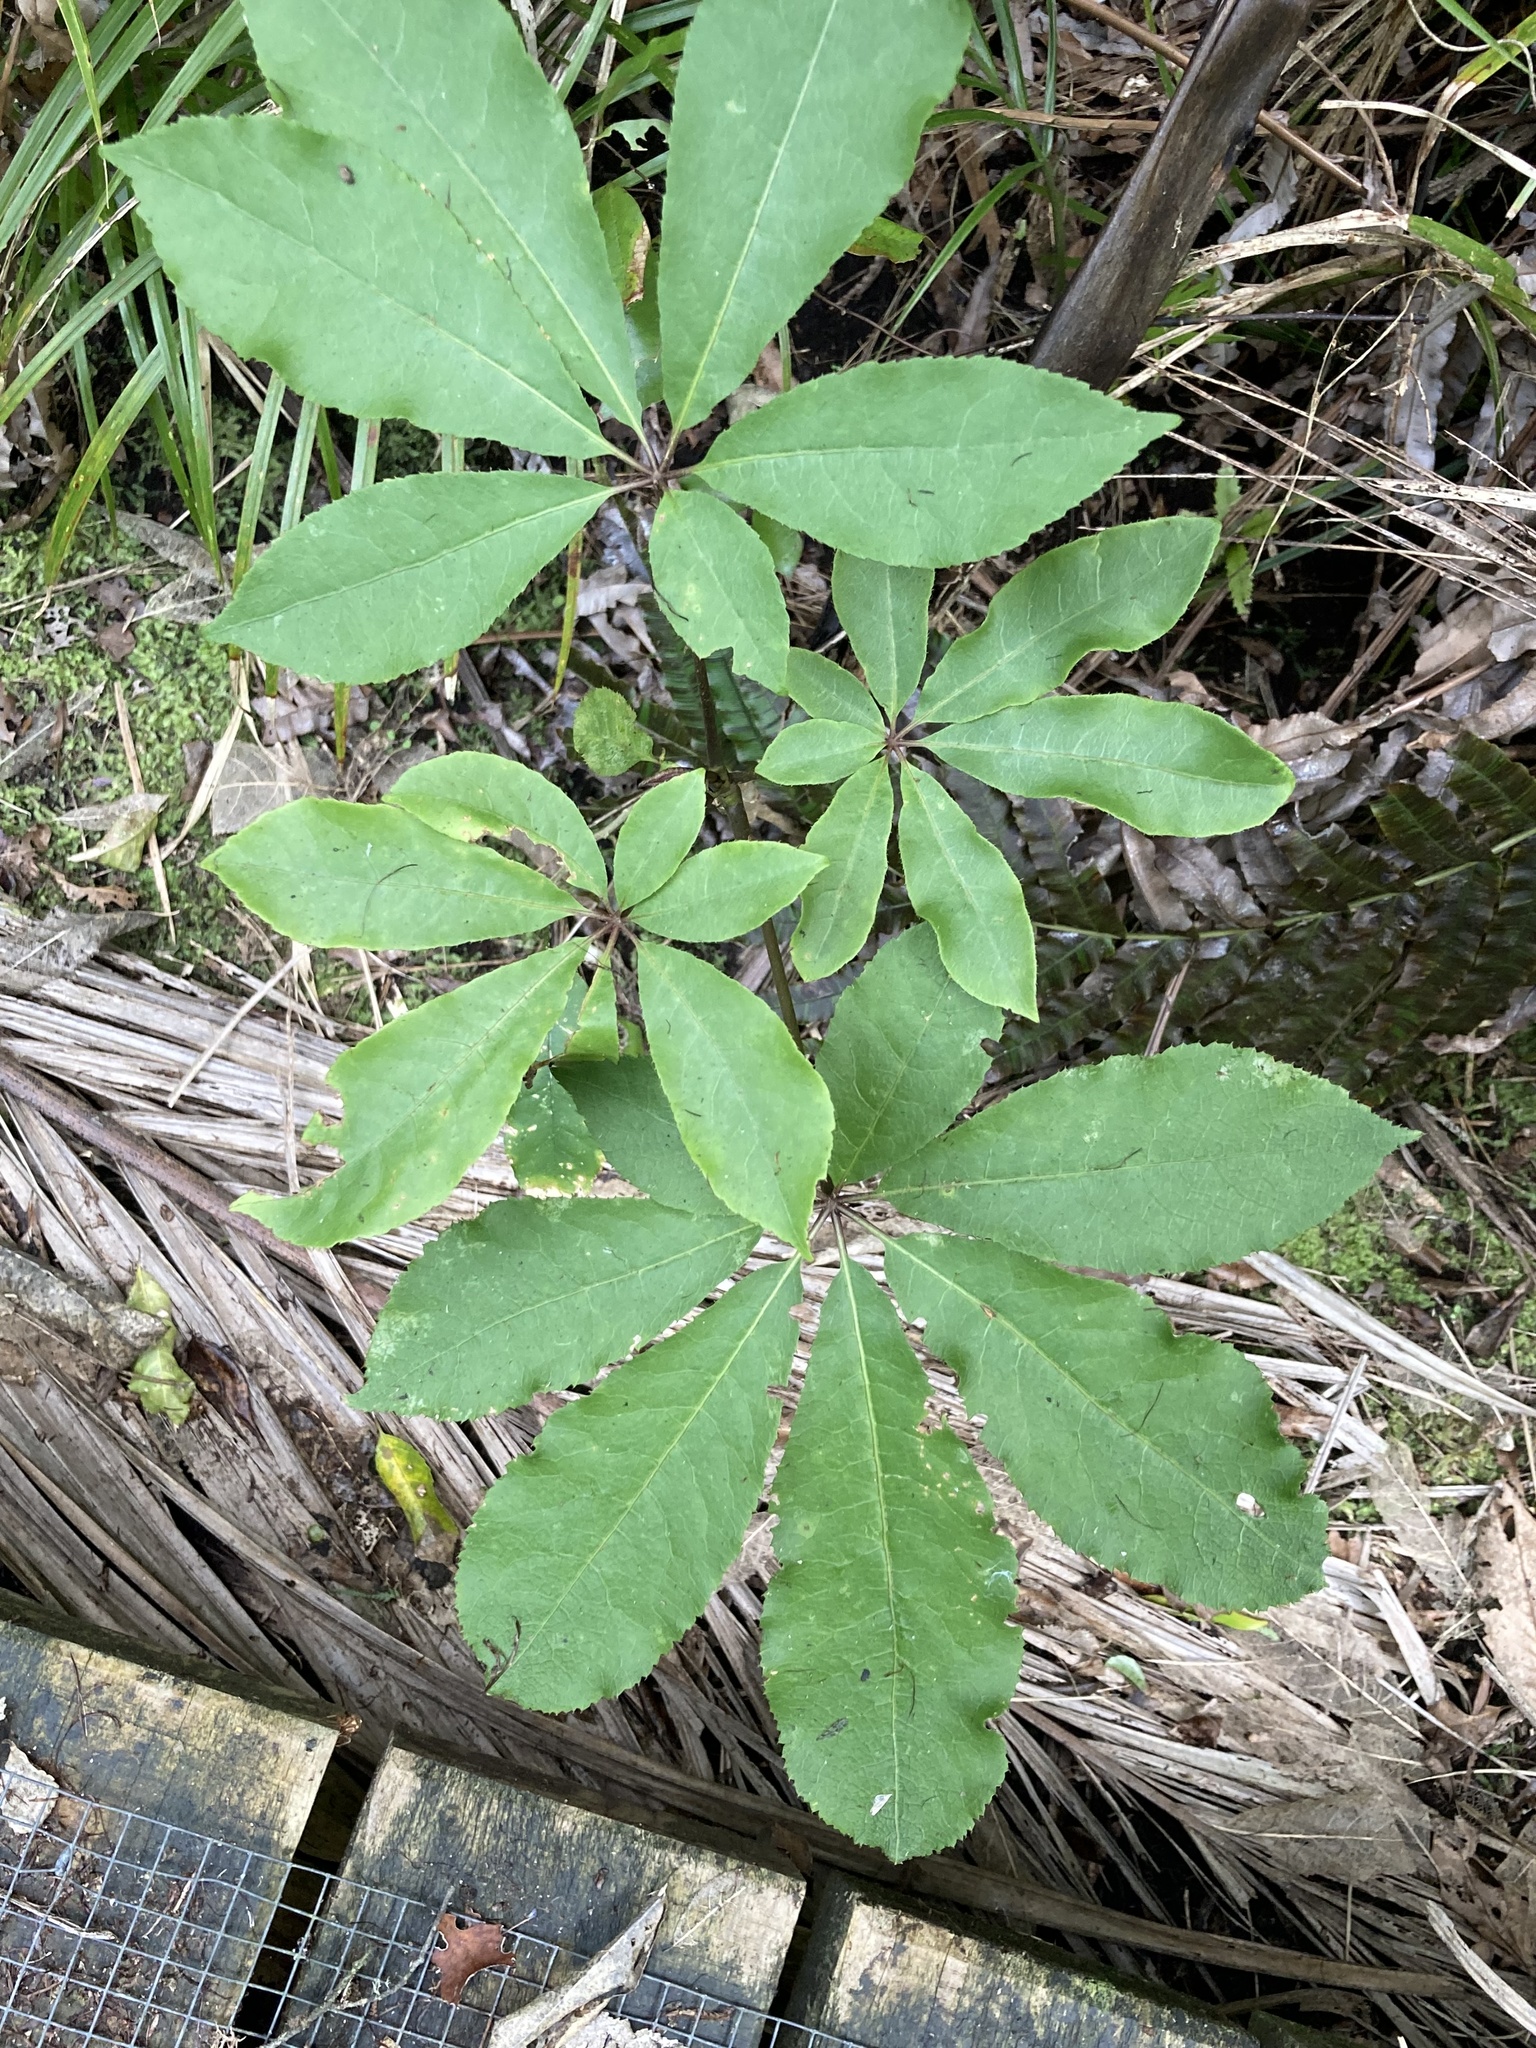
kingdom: Plantae
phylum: Tracheophyta
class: Magnoliopsida
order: Apiales
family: Araliaceae
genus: Schefflera
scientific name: Schefflera digitata
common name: Pate
